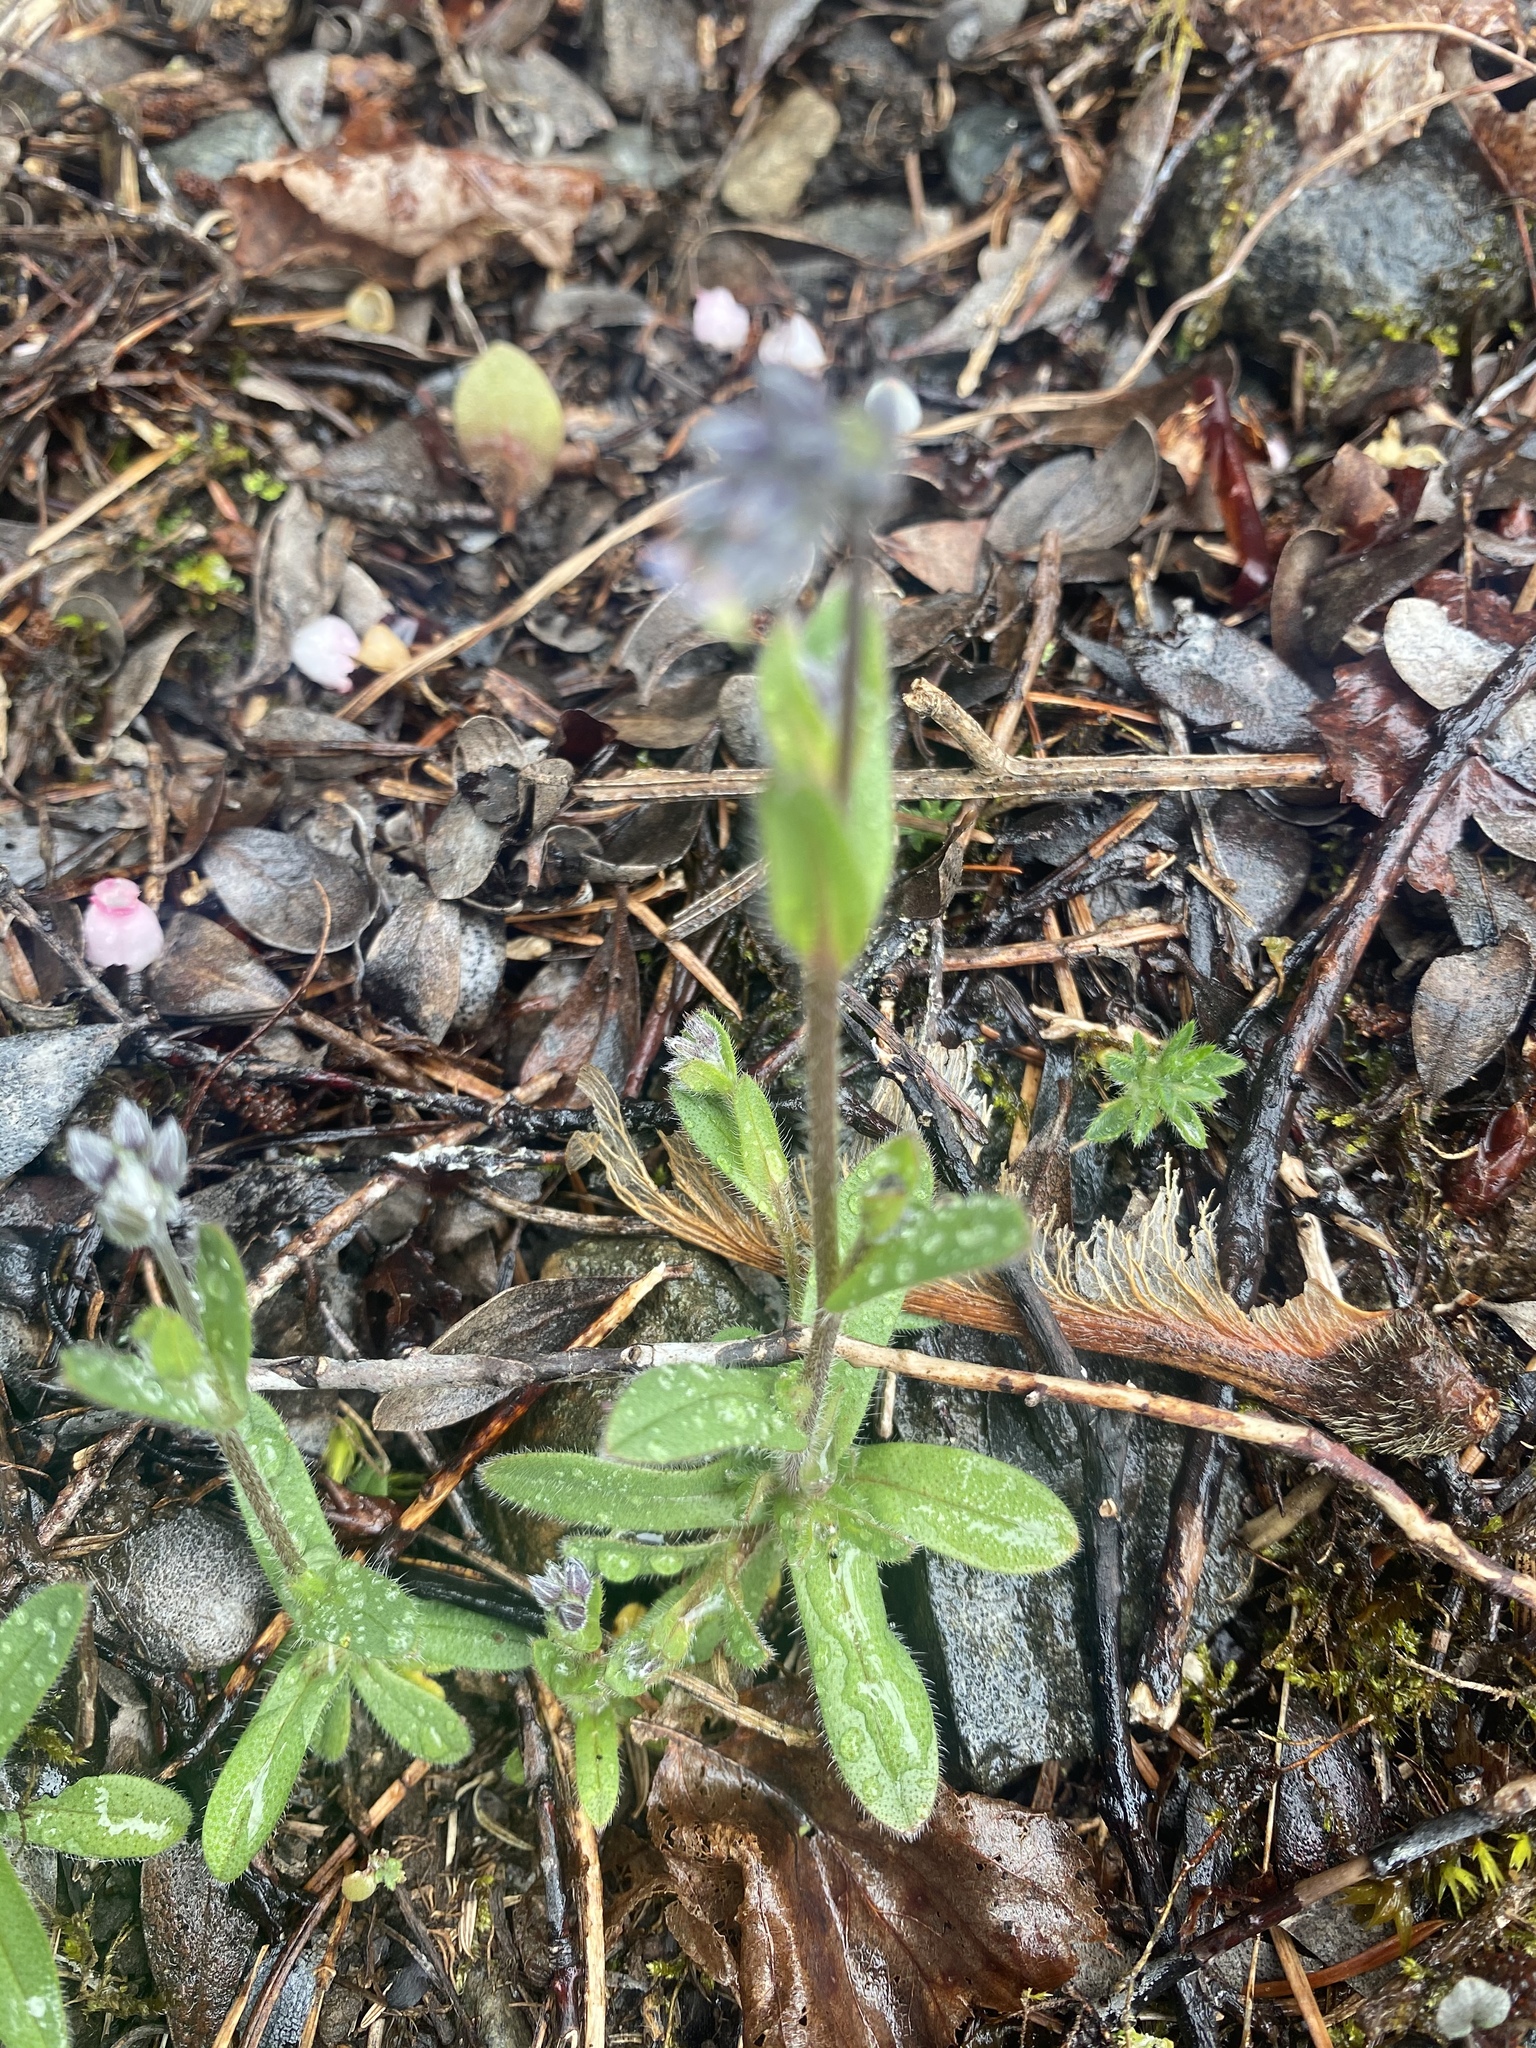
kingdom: Plantae
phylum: Tracheophyta
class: Magnoliopsida
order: Boraginales
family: Boraginaceae
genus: Myosotis
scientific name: Myosotis discolor
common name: Changing forget-me-not
